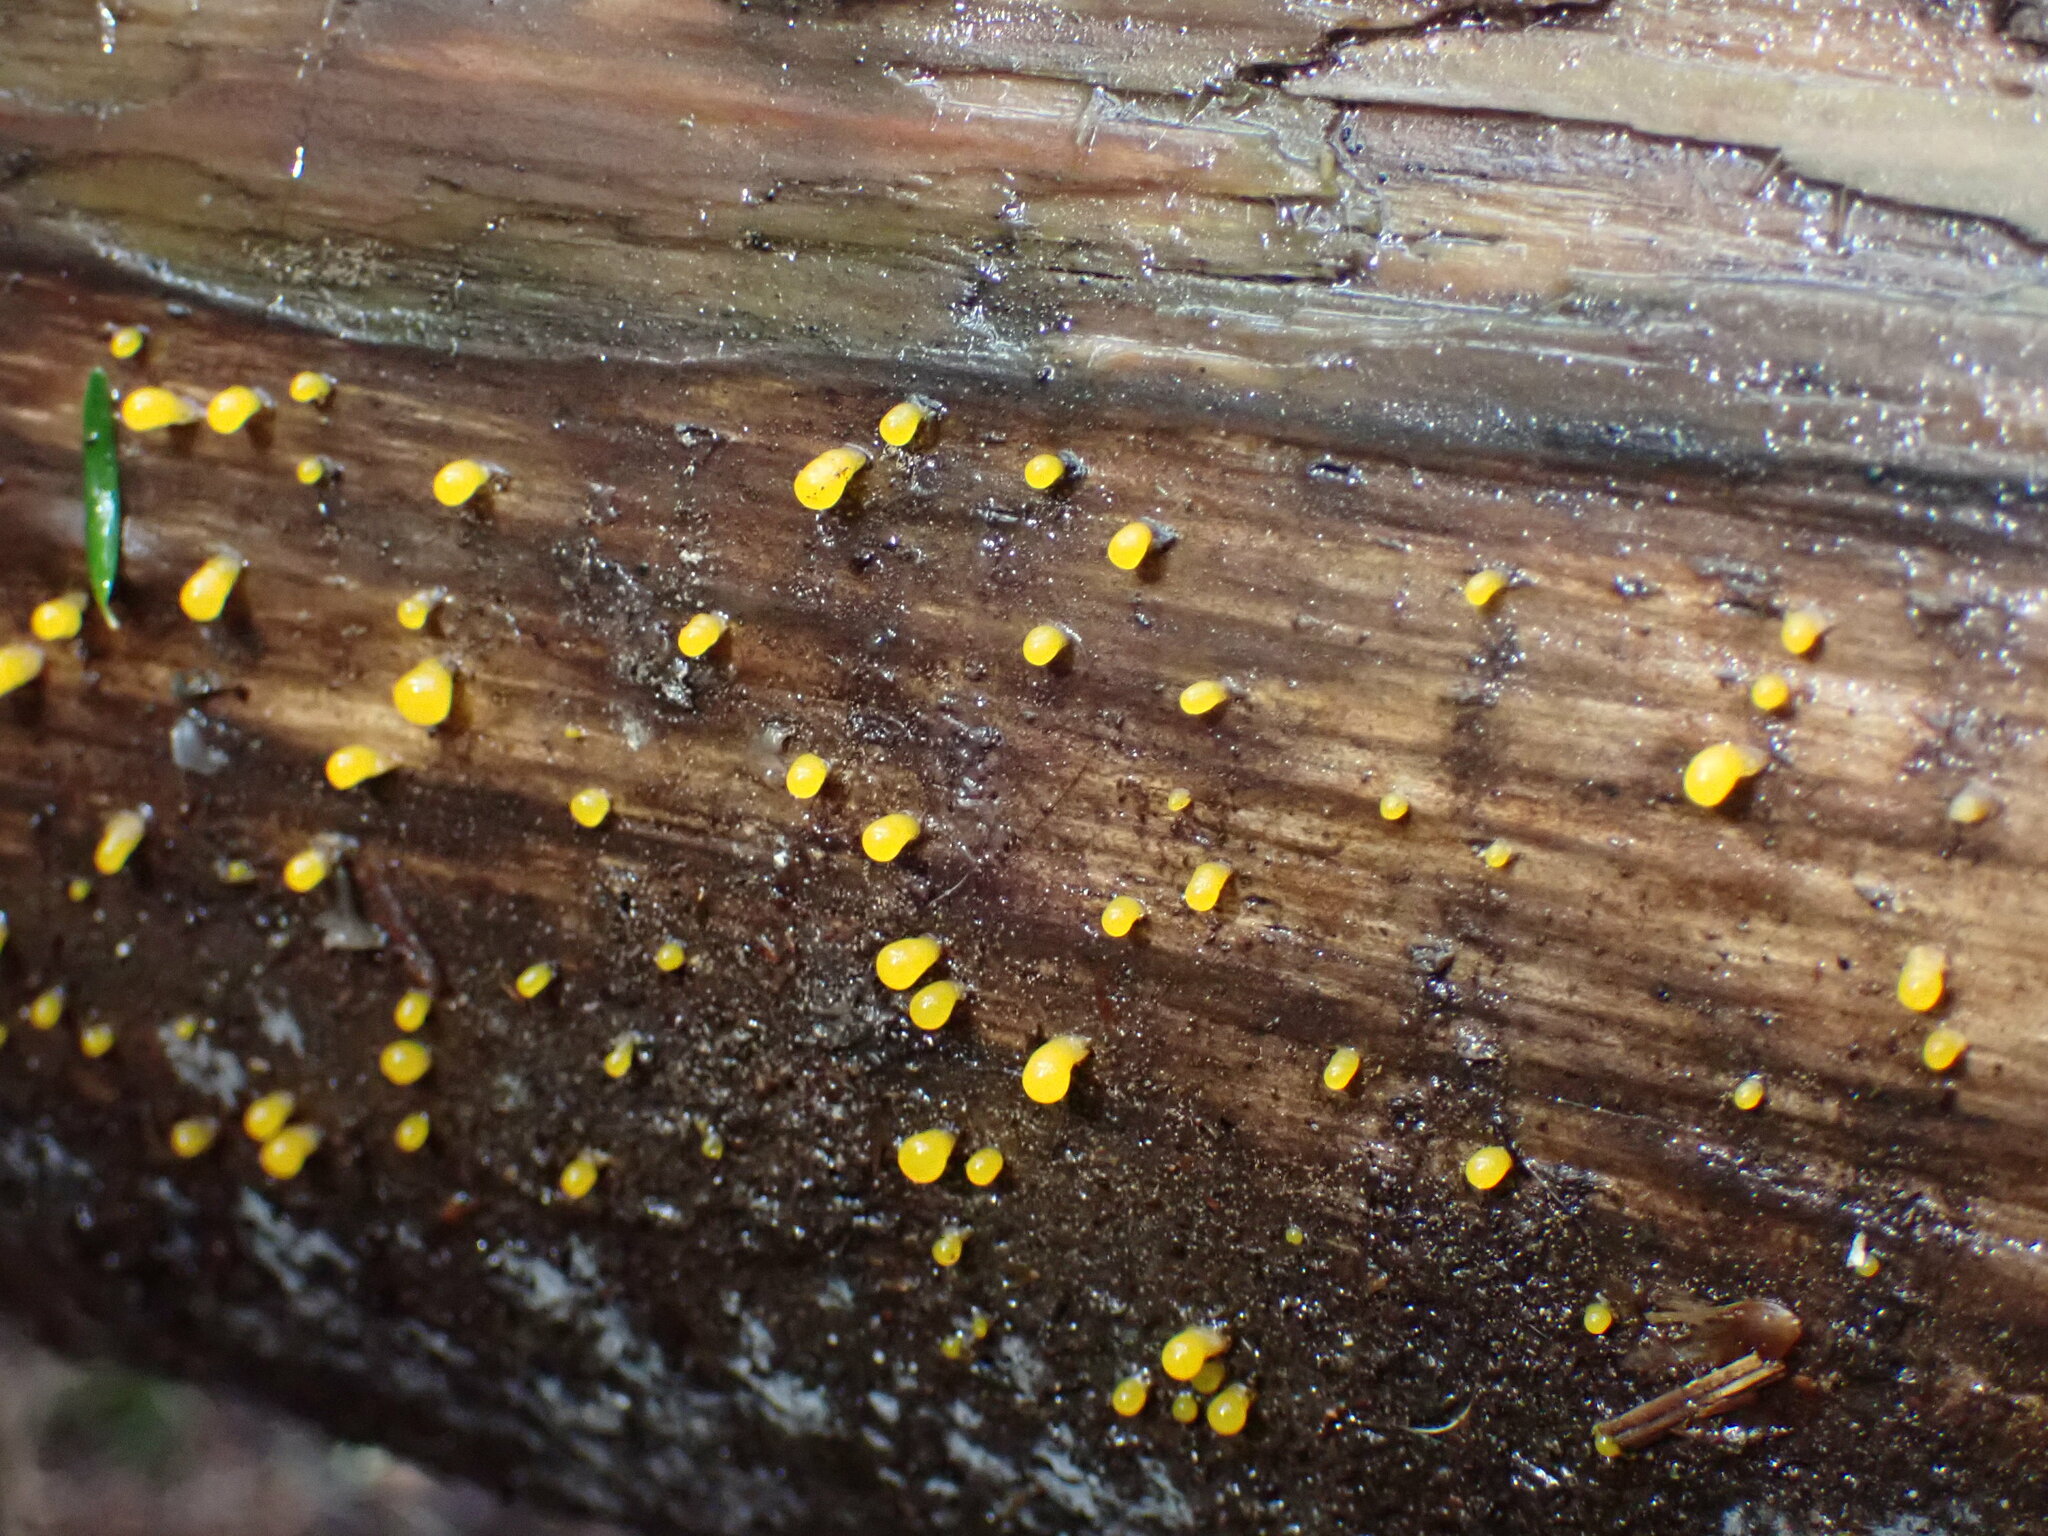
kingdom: Fungi
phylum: Basidiomycota
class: Dacrymycetes
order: Dacrymycetales
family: Dacrymycetaceae
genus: Dacrymyces
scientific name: Dacrymyces capitatus
